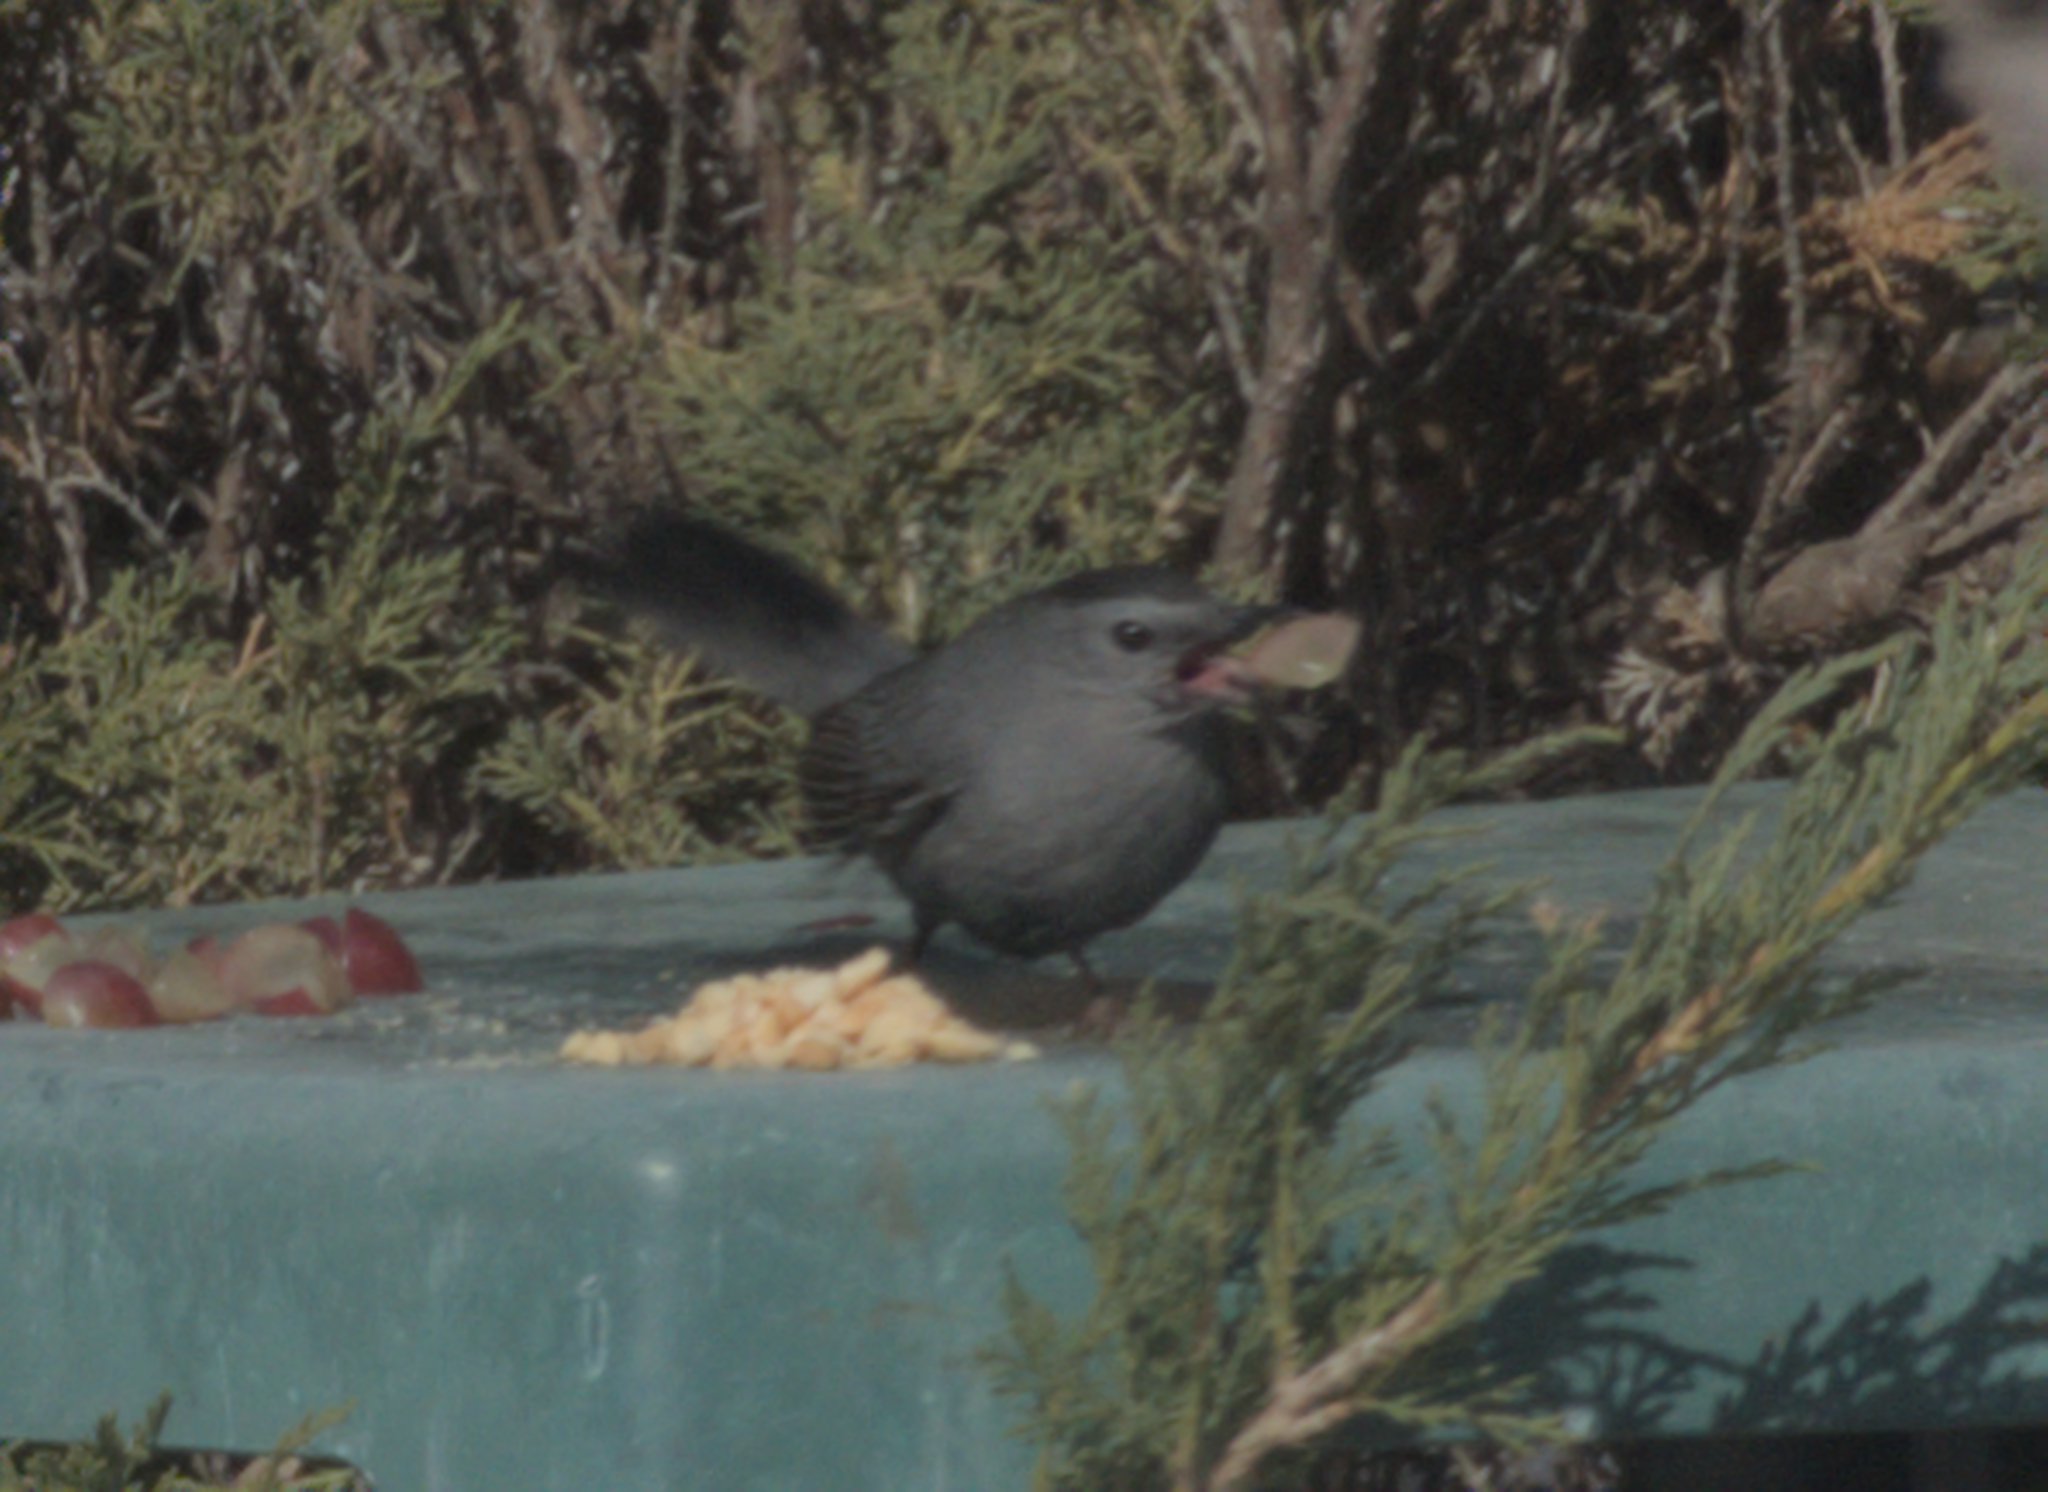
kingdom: Animalia
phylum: Chordata
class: Aves
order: Passeriformes
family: Mimidae
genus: Dumetella
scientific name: Dumetella carolinensis
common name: Gray catbird
